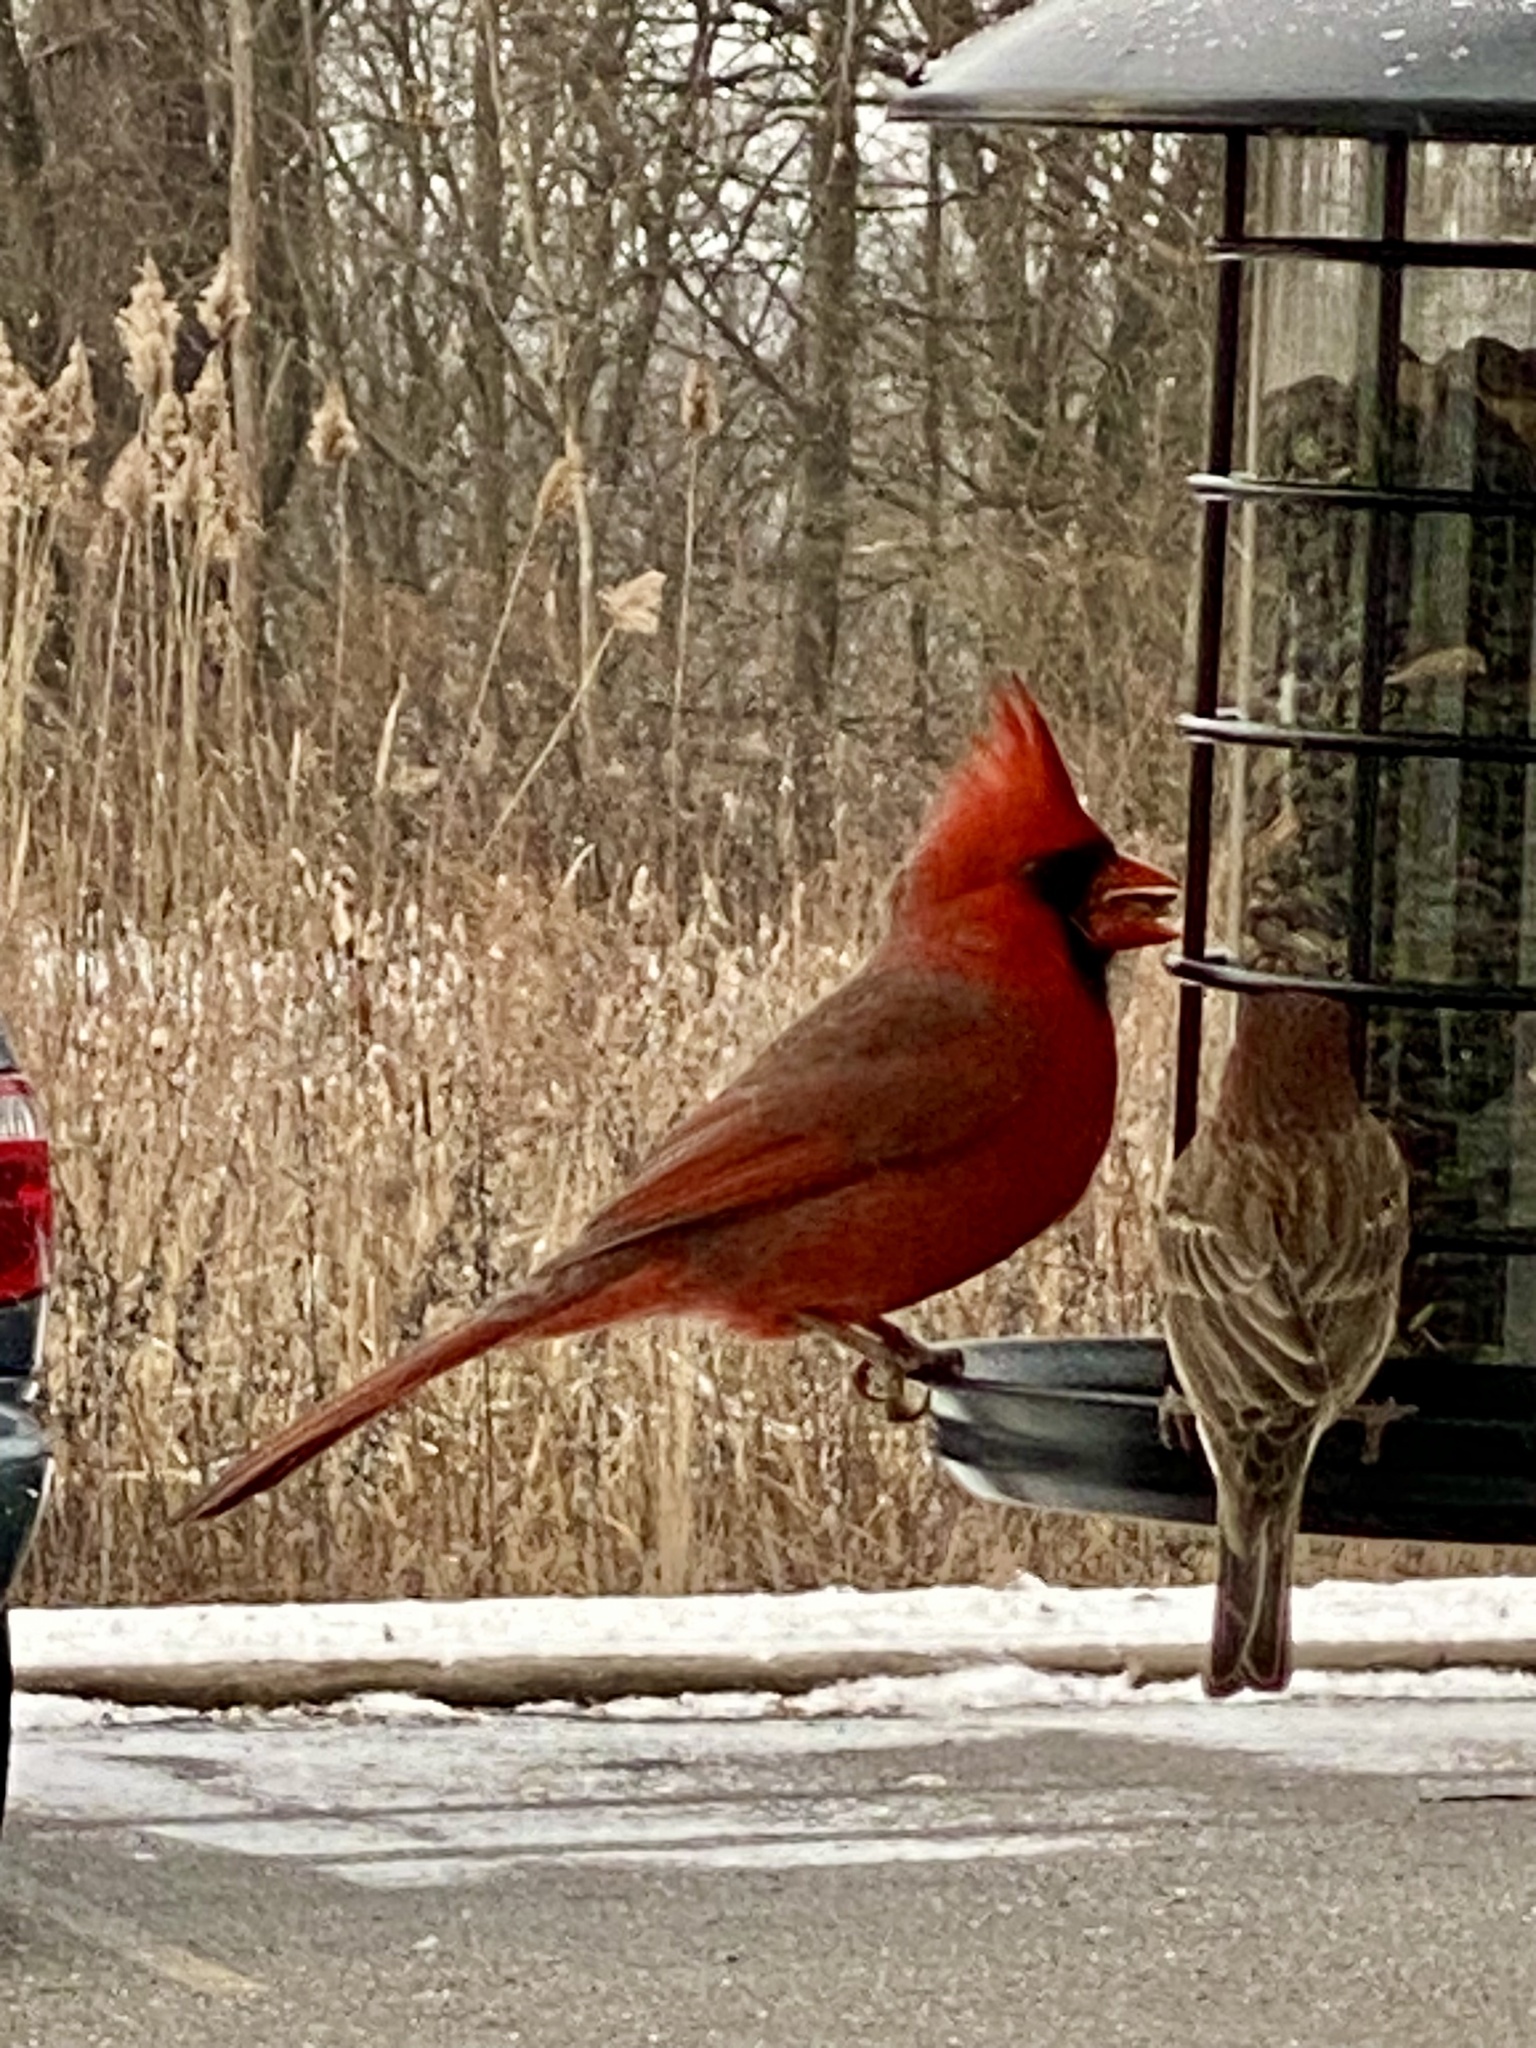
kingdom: Animalia
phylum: Chordata
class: Aves
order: Passeriformes
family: Cardinalidae
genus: Cardinalis
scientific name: Cardinalis cardinalis
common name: Northern cardinal
